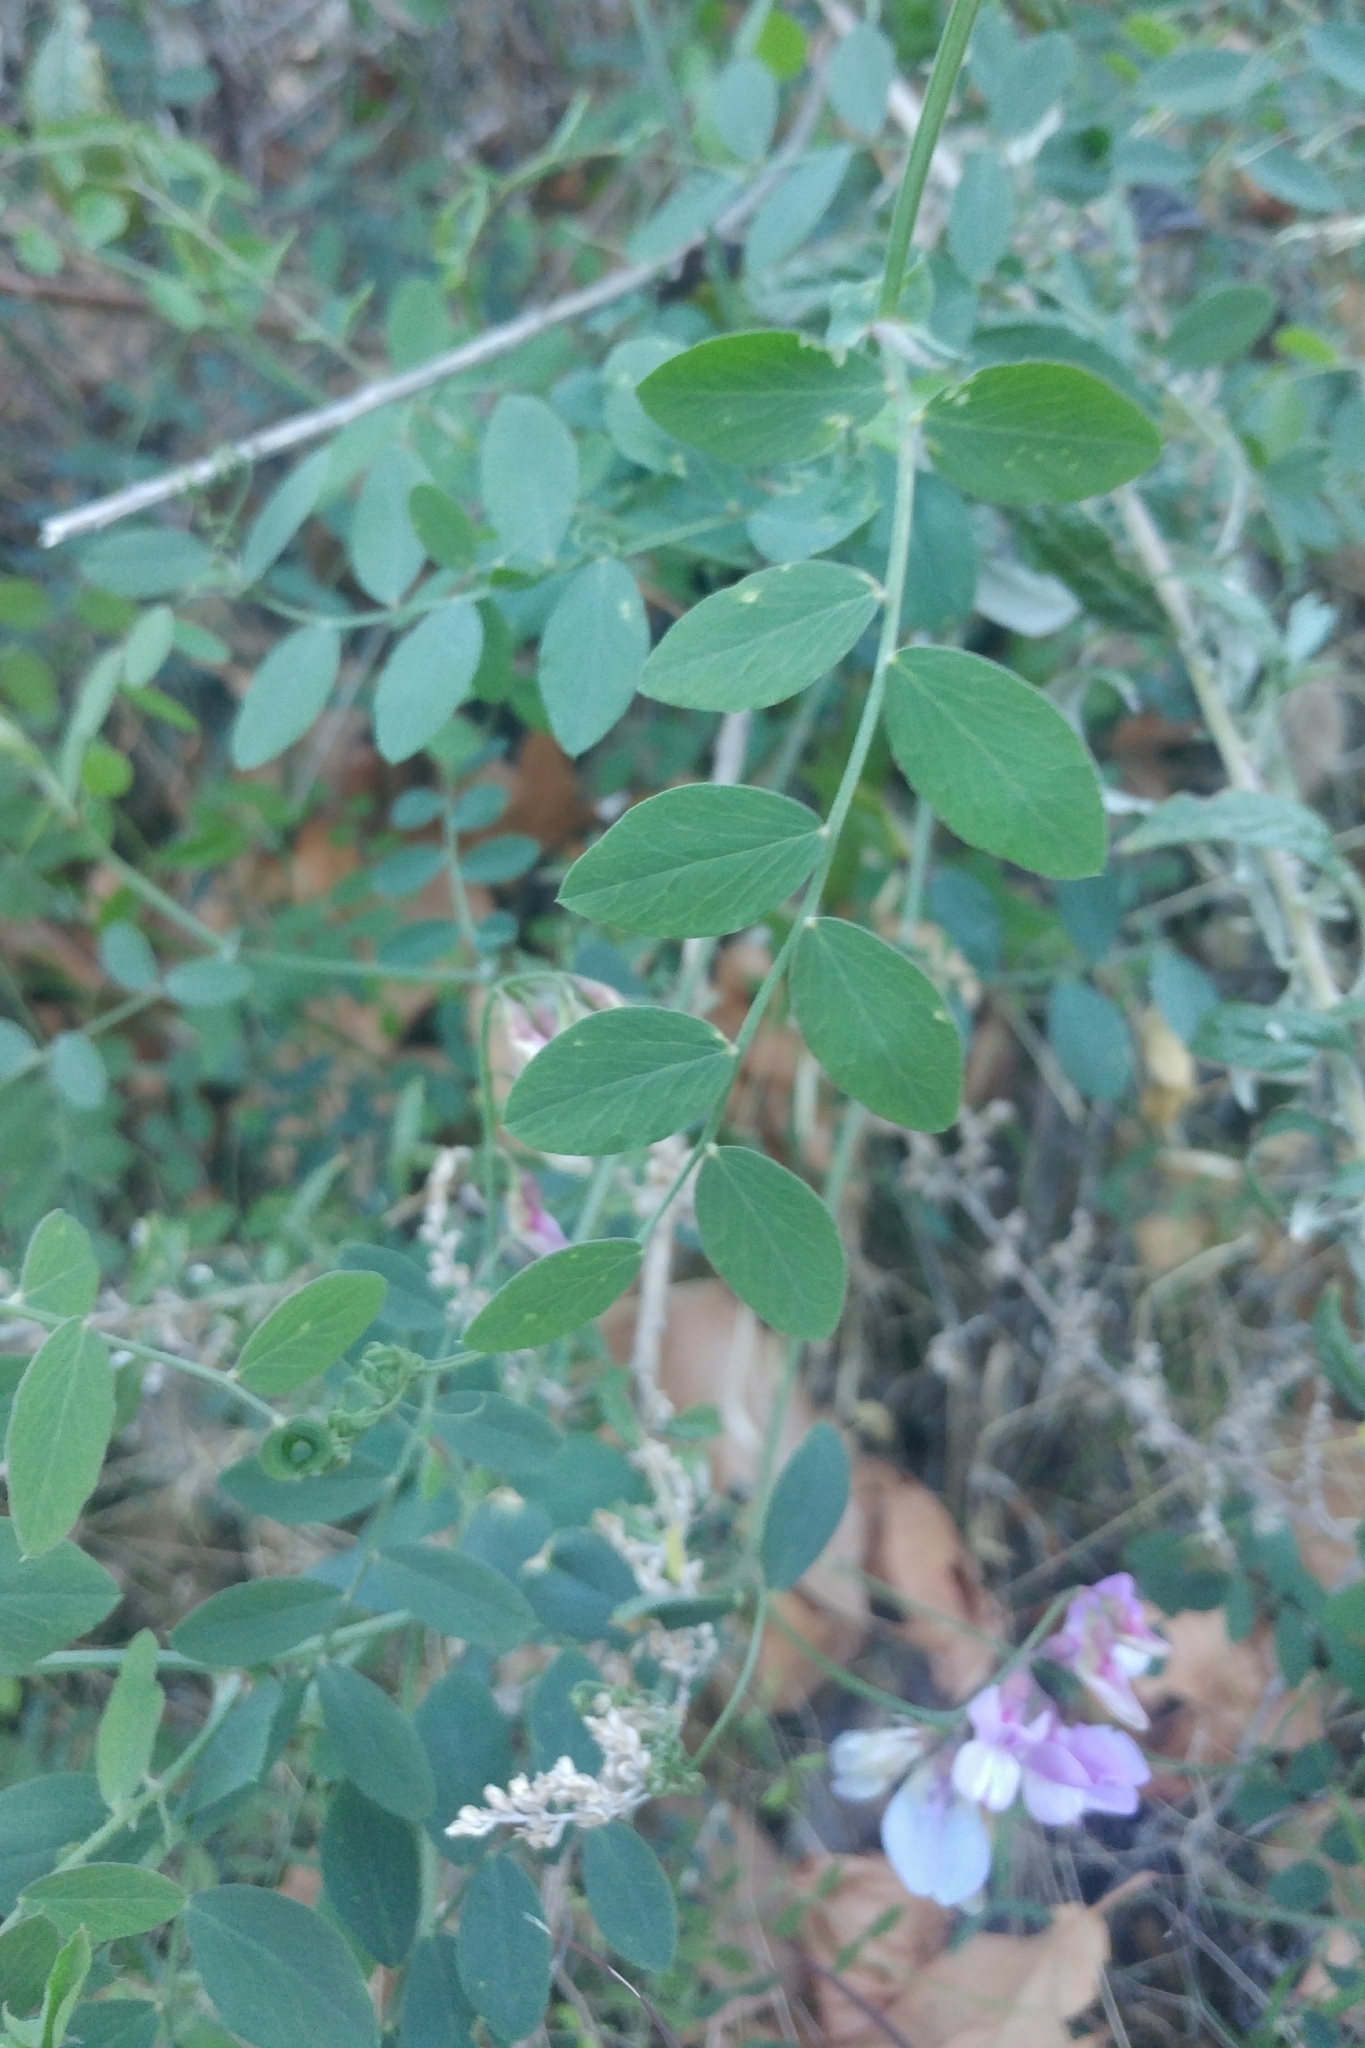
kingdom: Plantae
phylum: Tracheophyta
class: Magnoliopsida
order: Fabales
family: Fabaceae
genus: Lathyrus
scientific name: Lathyrus vestitus
